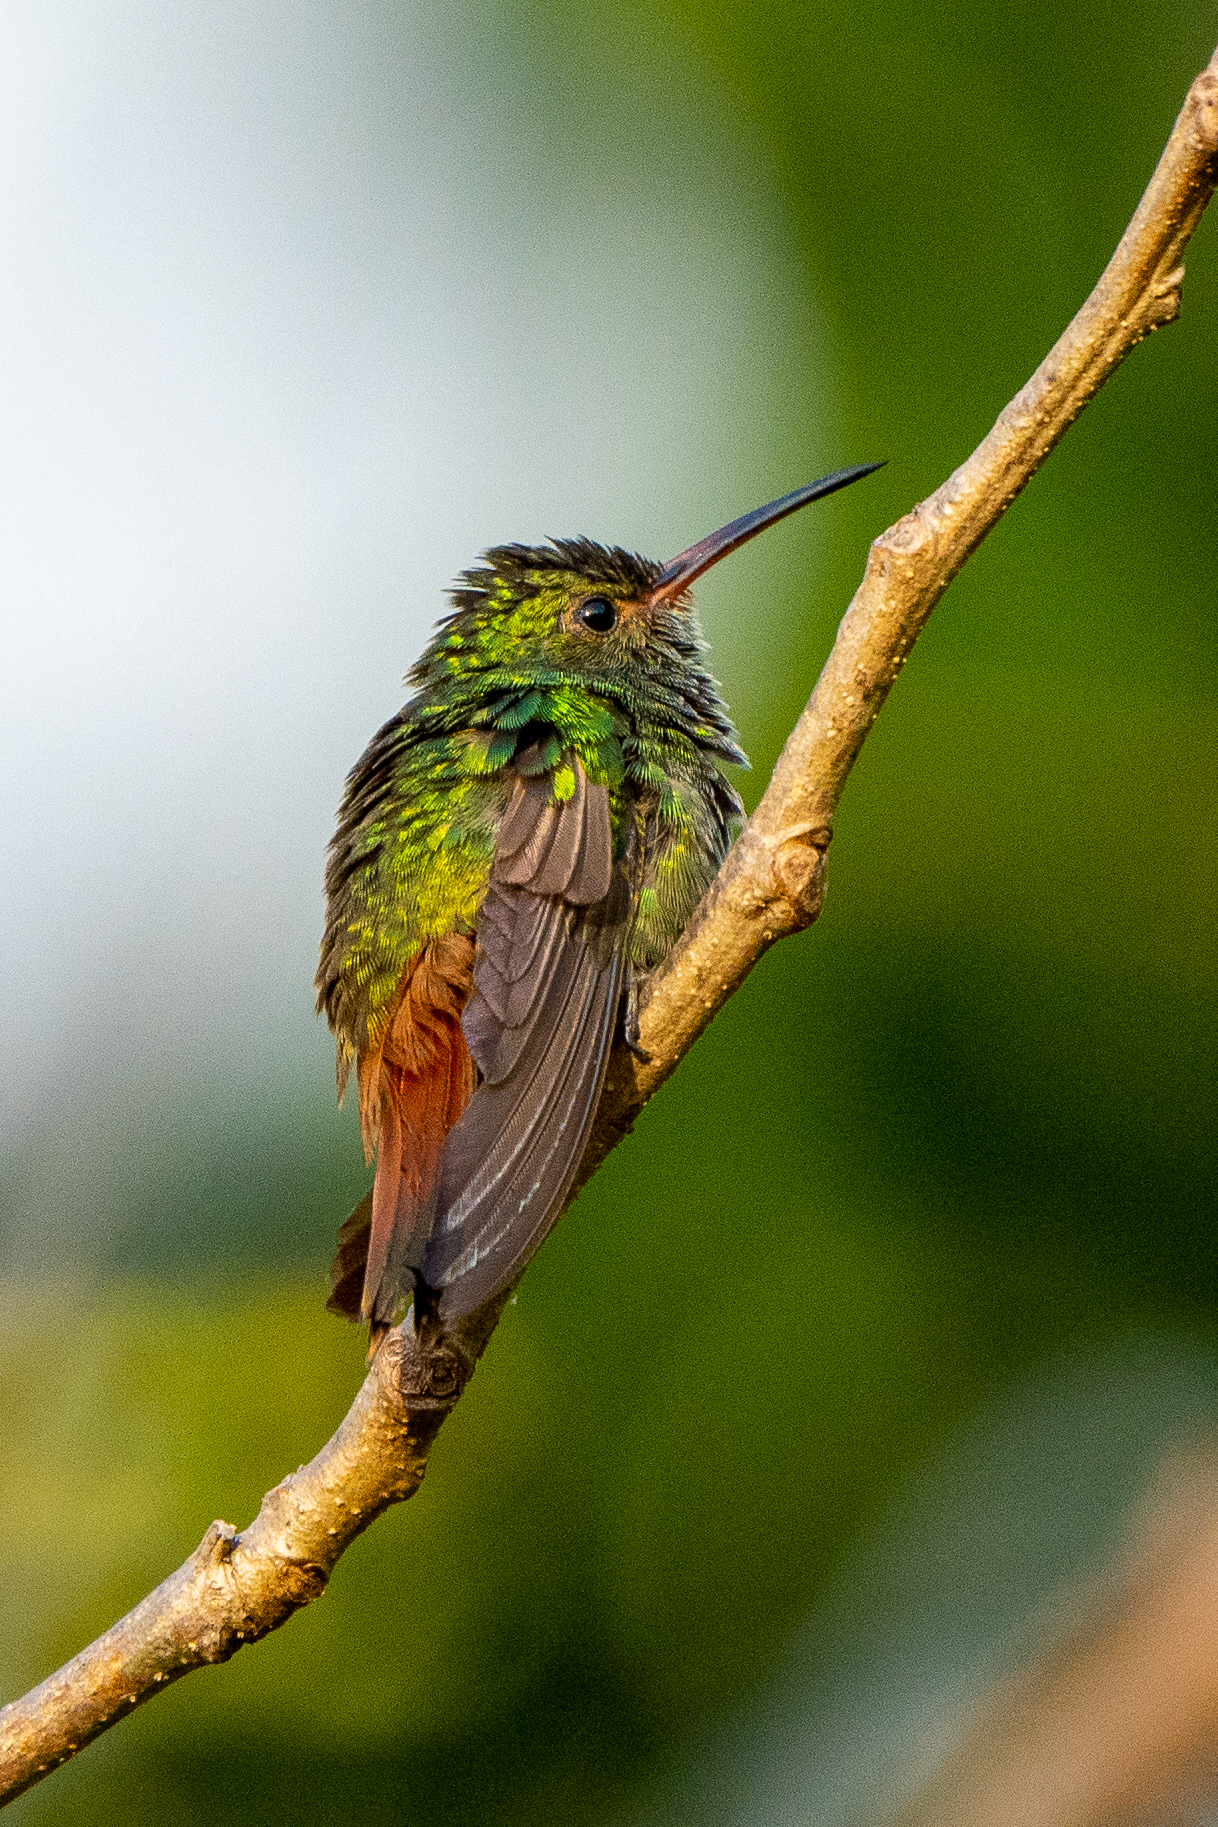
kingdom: Animalia
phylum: Chordata
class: Aves
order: Apodiformes
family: Trochilidae
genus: Amazilia
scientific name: Amazilia tzacatl
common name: Rufous-tailed hummingbird
